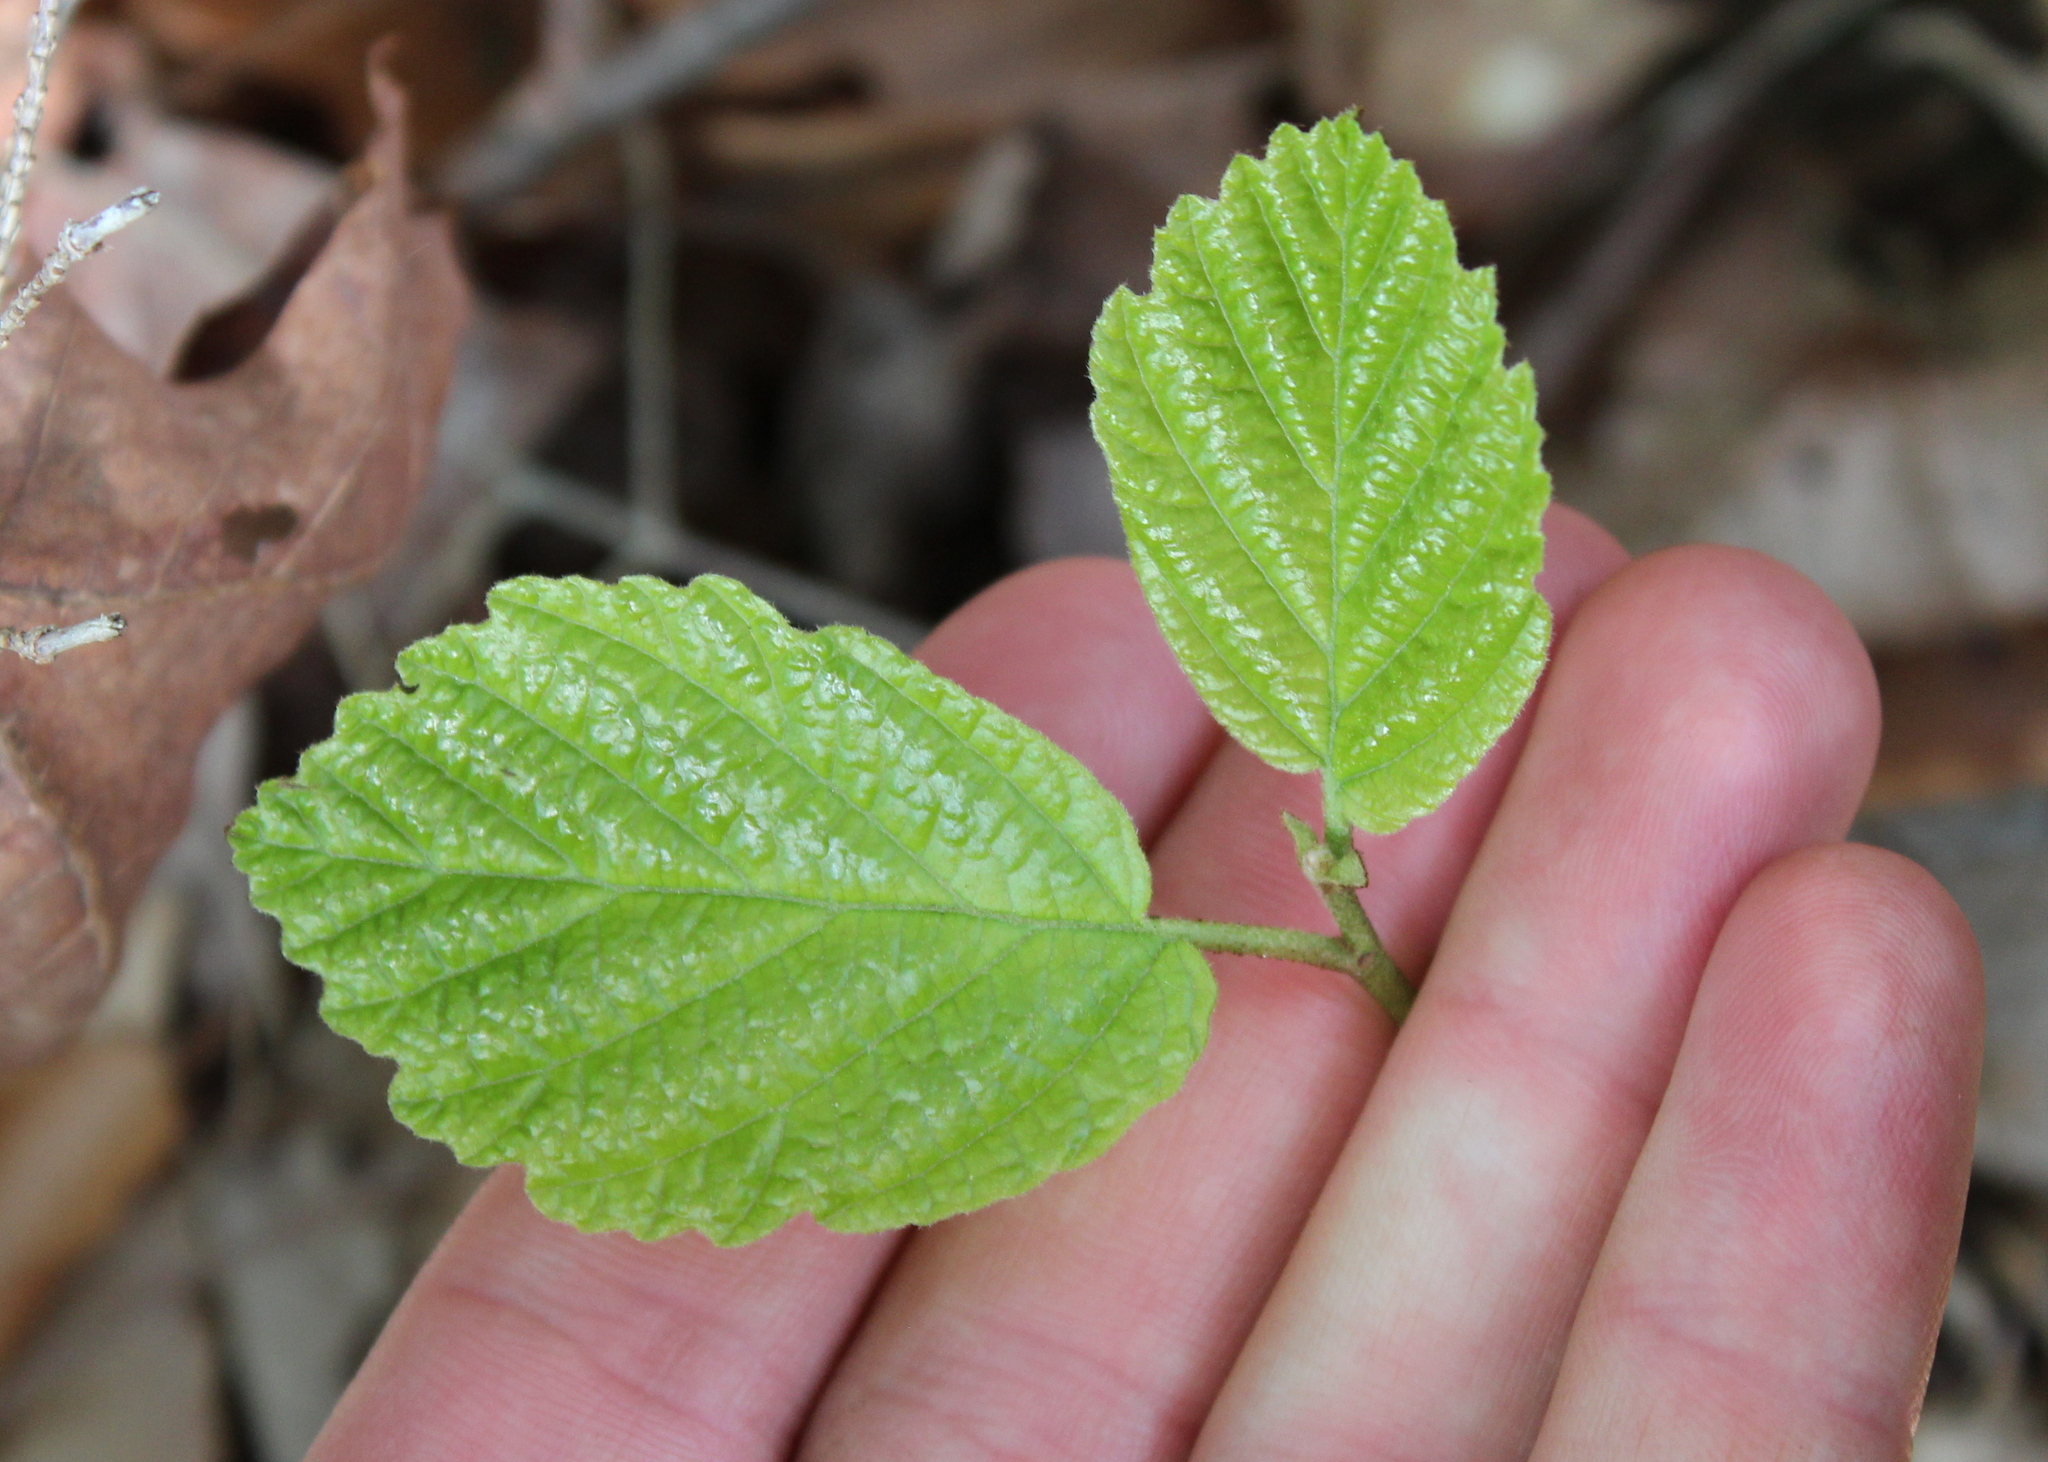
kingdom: Plantae
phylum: Tracheophyta
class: Magnoliopsida
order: Saxifragales
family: Hamamelidaceae
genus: Hamamelis
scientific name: Hamamelis virginiana
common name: Witch-hazel
